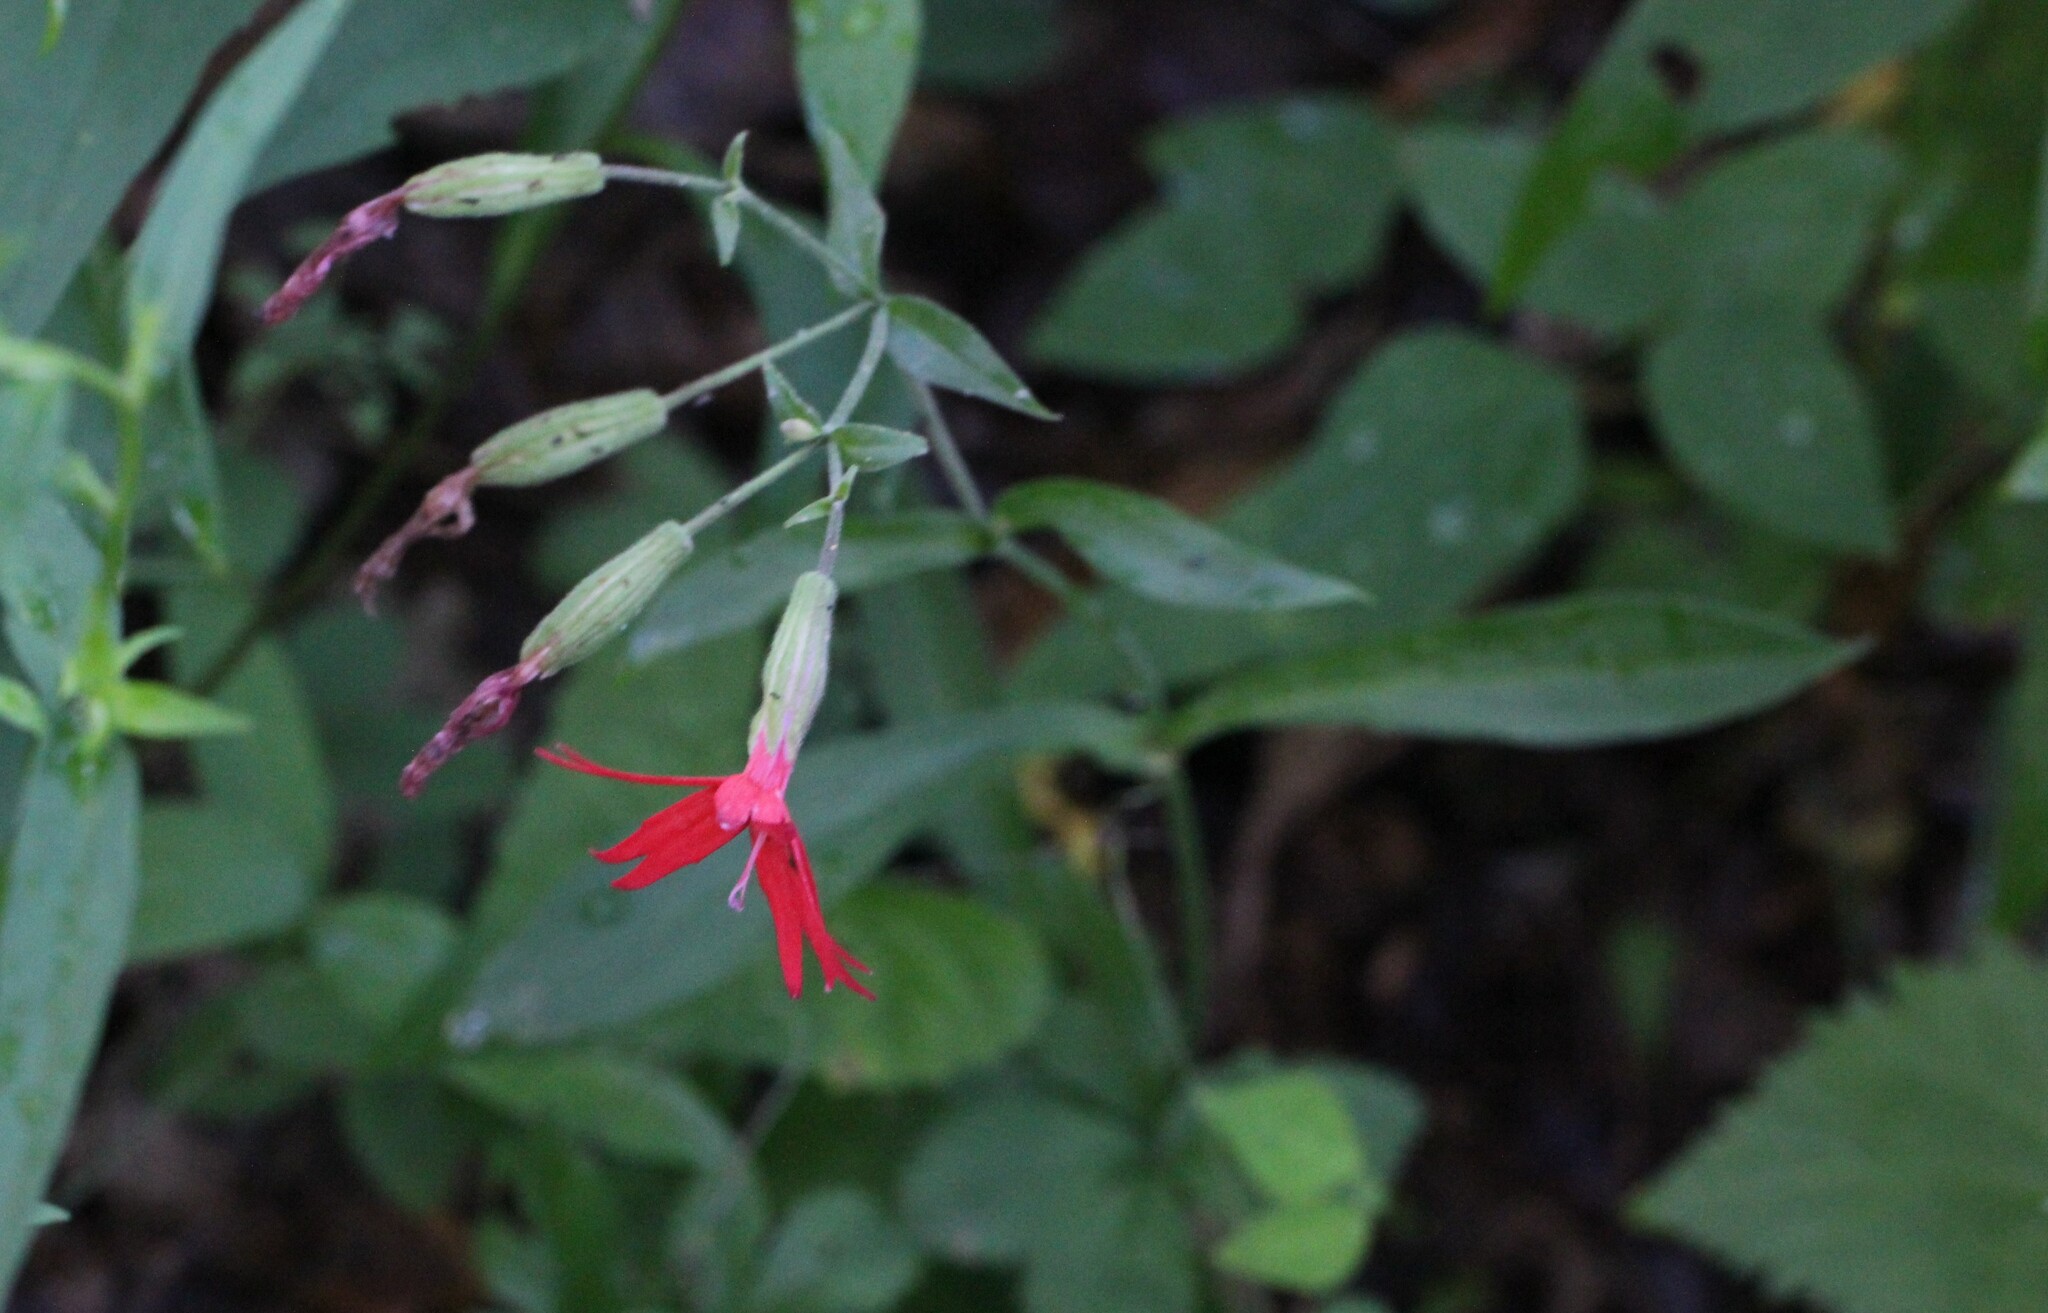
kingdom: Plantae
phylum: Tracheophyta
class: Magnoliopsida
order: Caryophyllales
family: Caryophyllaceae
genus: Silene
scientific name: Silene virginica
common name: Fire-pink
